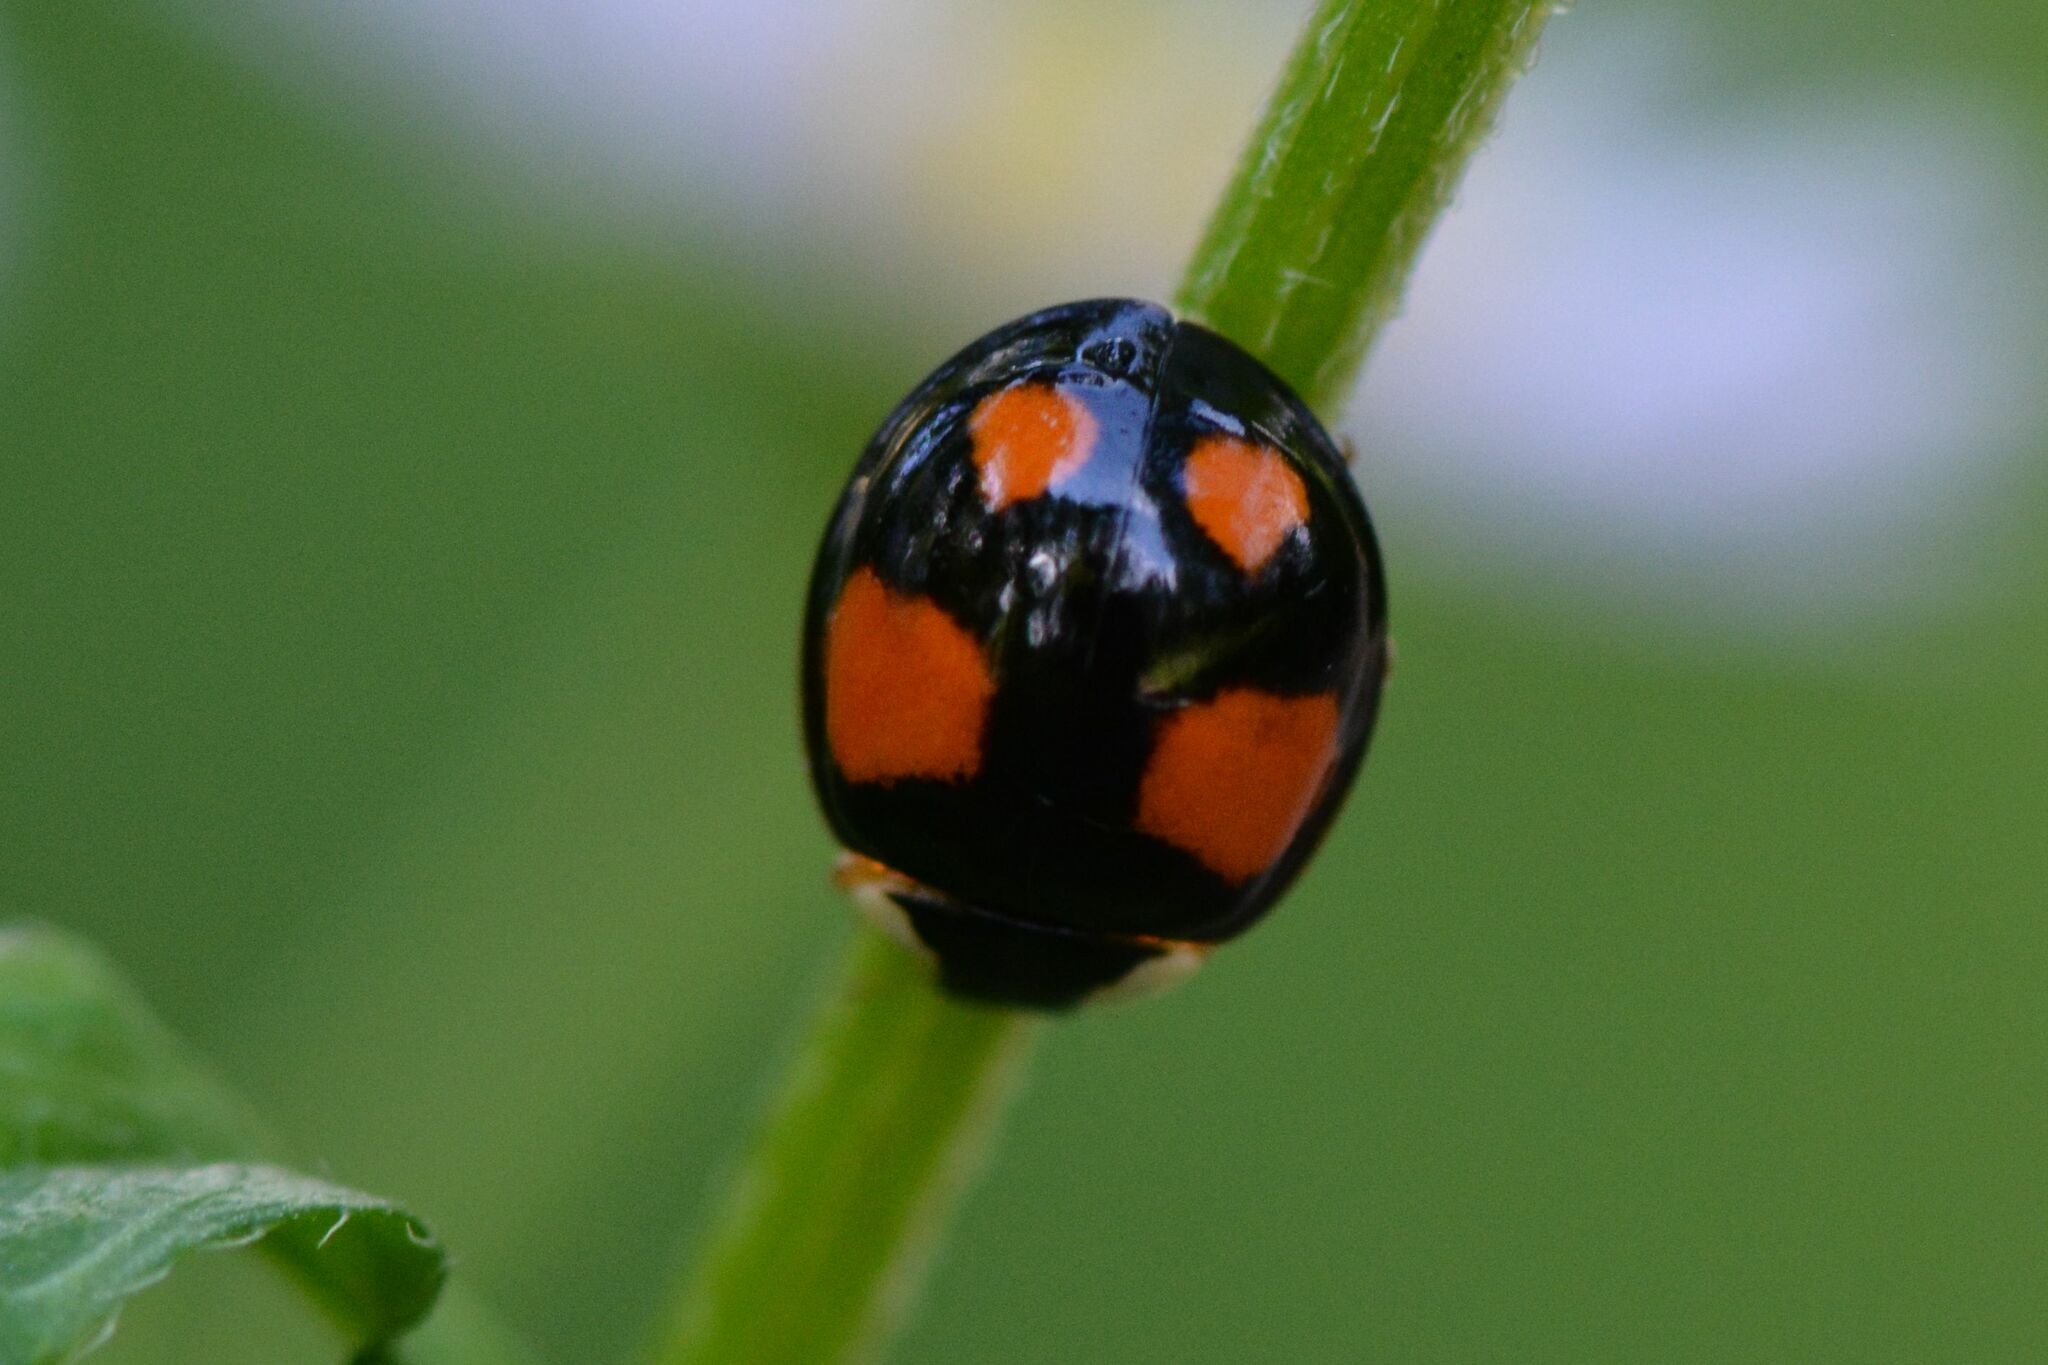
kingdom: Animalia
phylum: Arthropoda
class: Insecta
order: Coleoptera
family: Coccinellidae
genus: Harmonia
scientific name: Harmonia axyridis
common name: Harlequin ladybird
